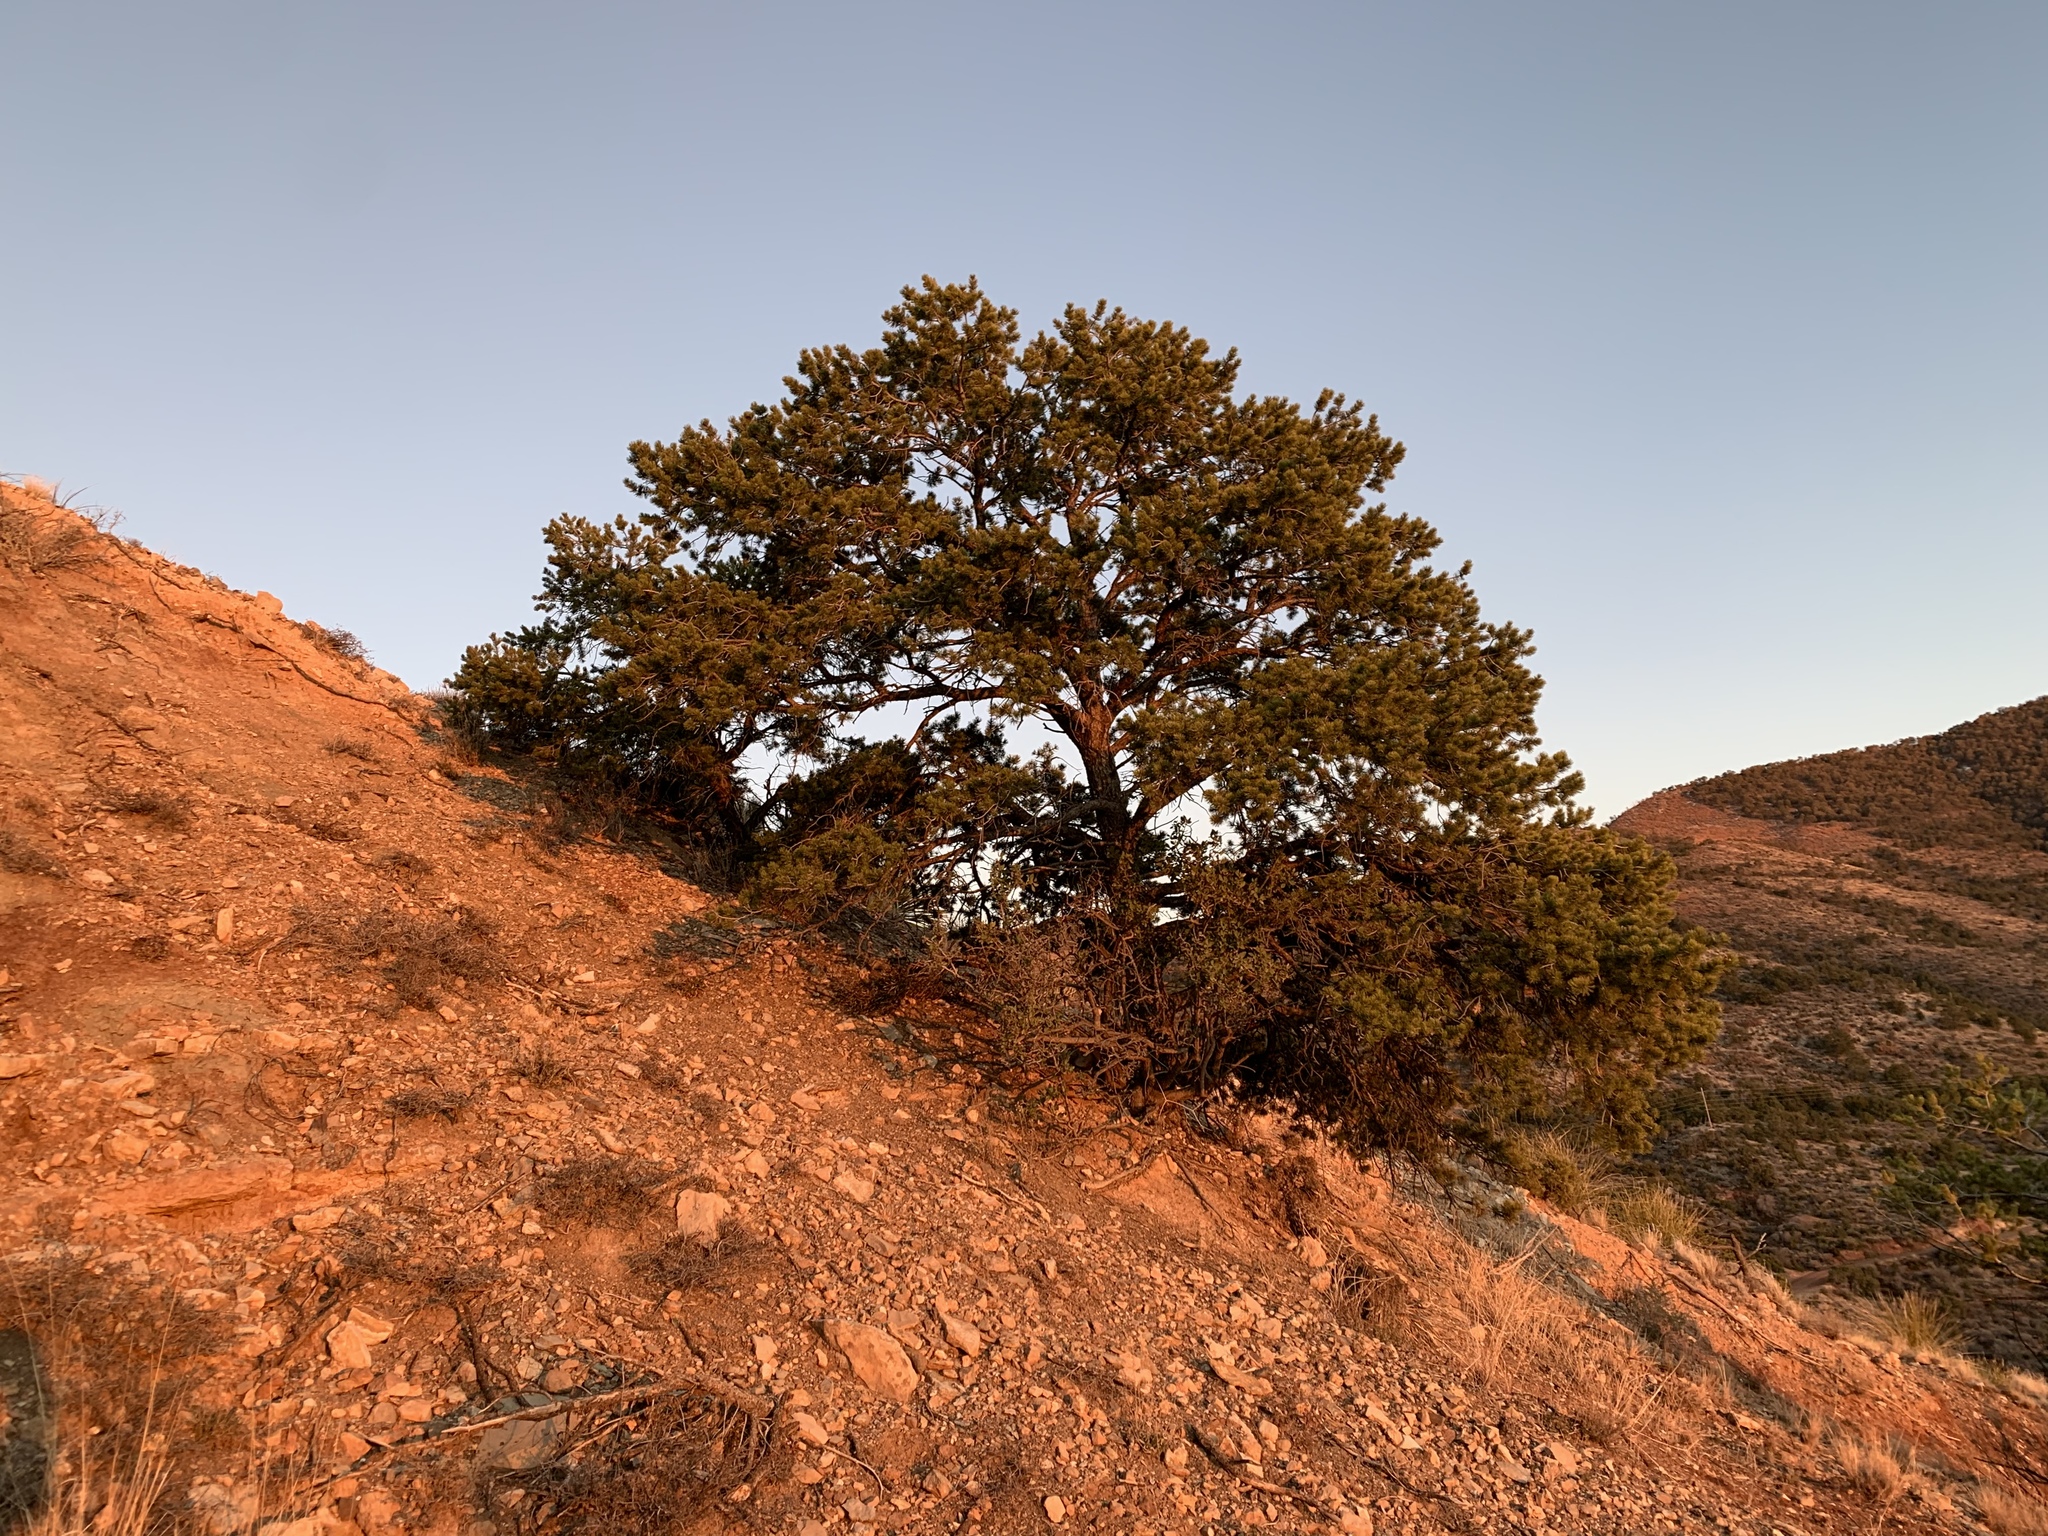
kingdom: Plantae
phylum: Tracheophyta
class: Pinopsida
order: Pinales
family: Pinaceae
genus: Pinus
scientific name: Pinus edulis
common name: Colorado pinyon
